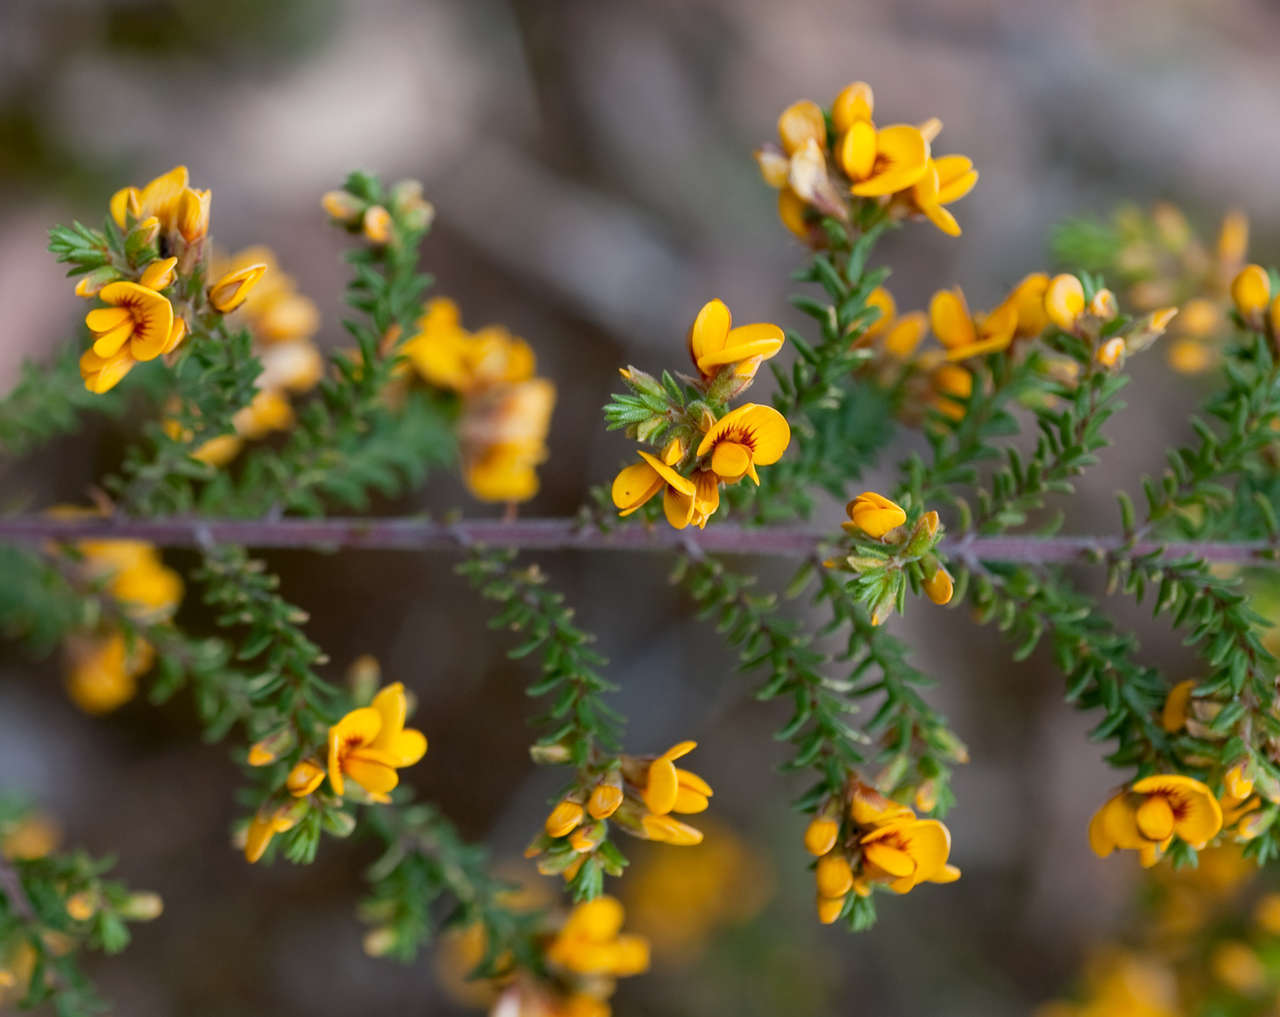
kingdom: Plantae
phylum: Tracheophyta
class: Magnoliopsida
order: Fabales
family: Fabaceae
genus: Pultenaea
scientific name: Pultenaea graveolens
